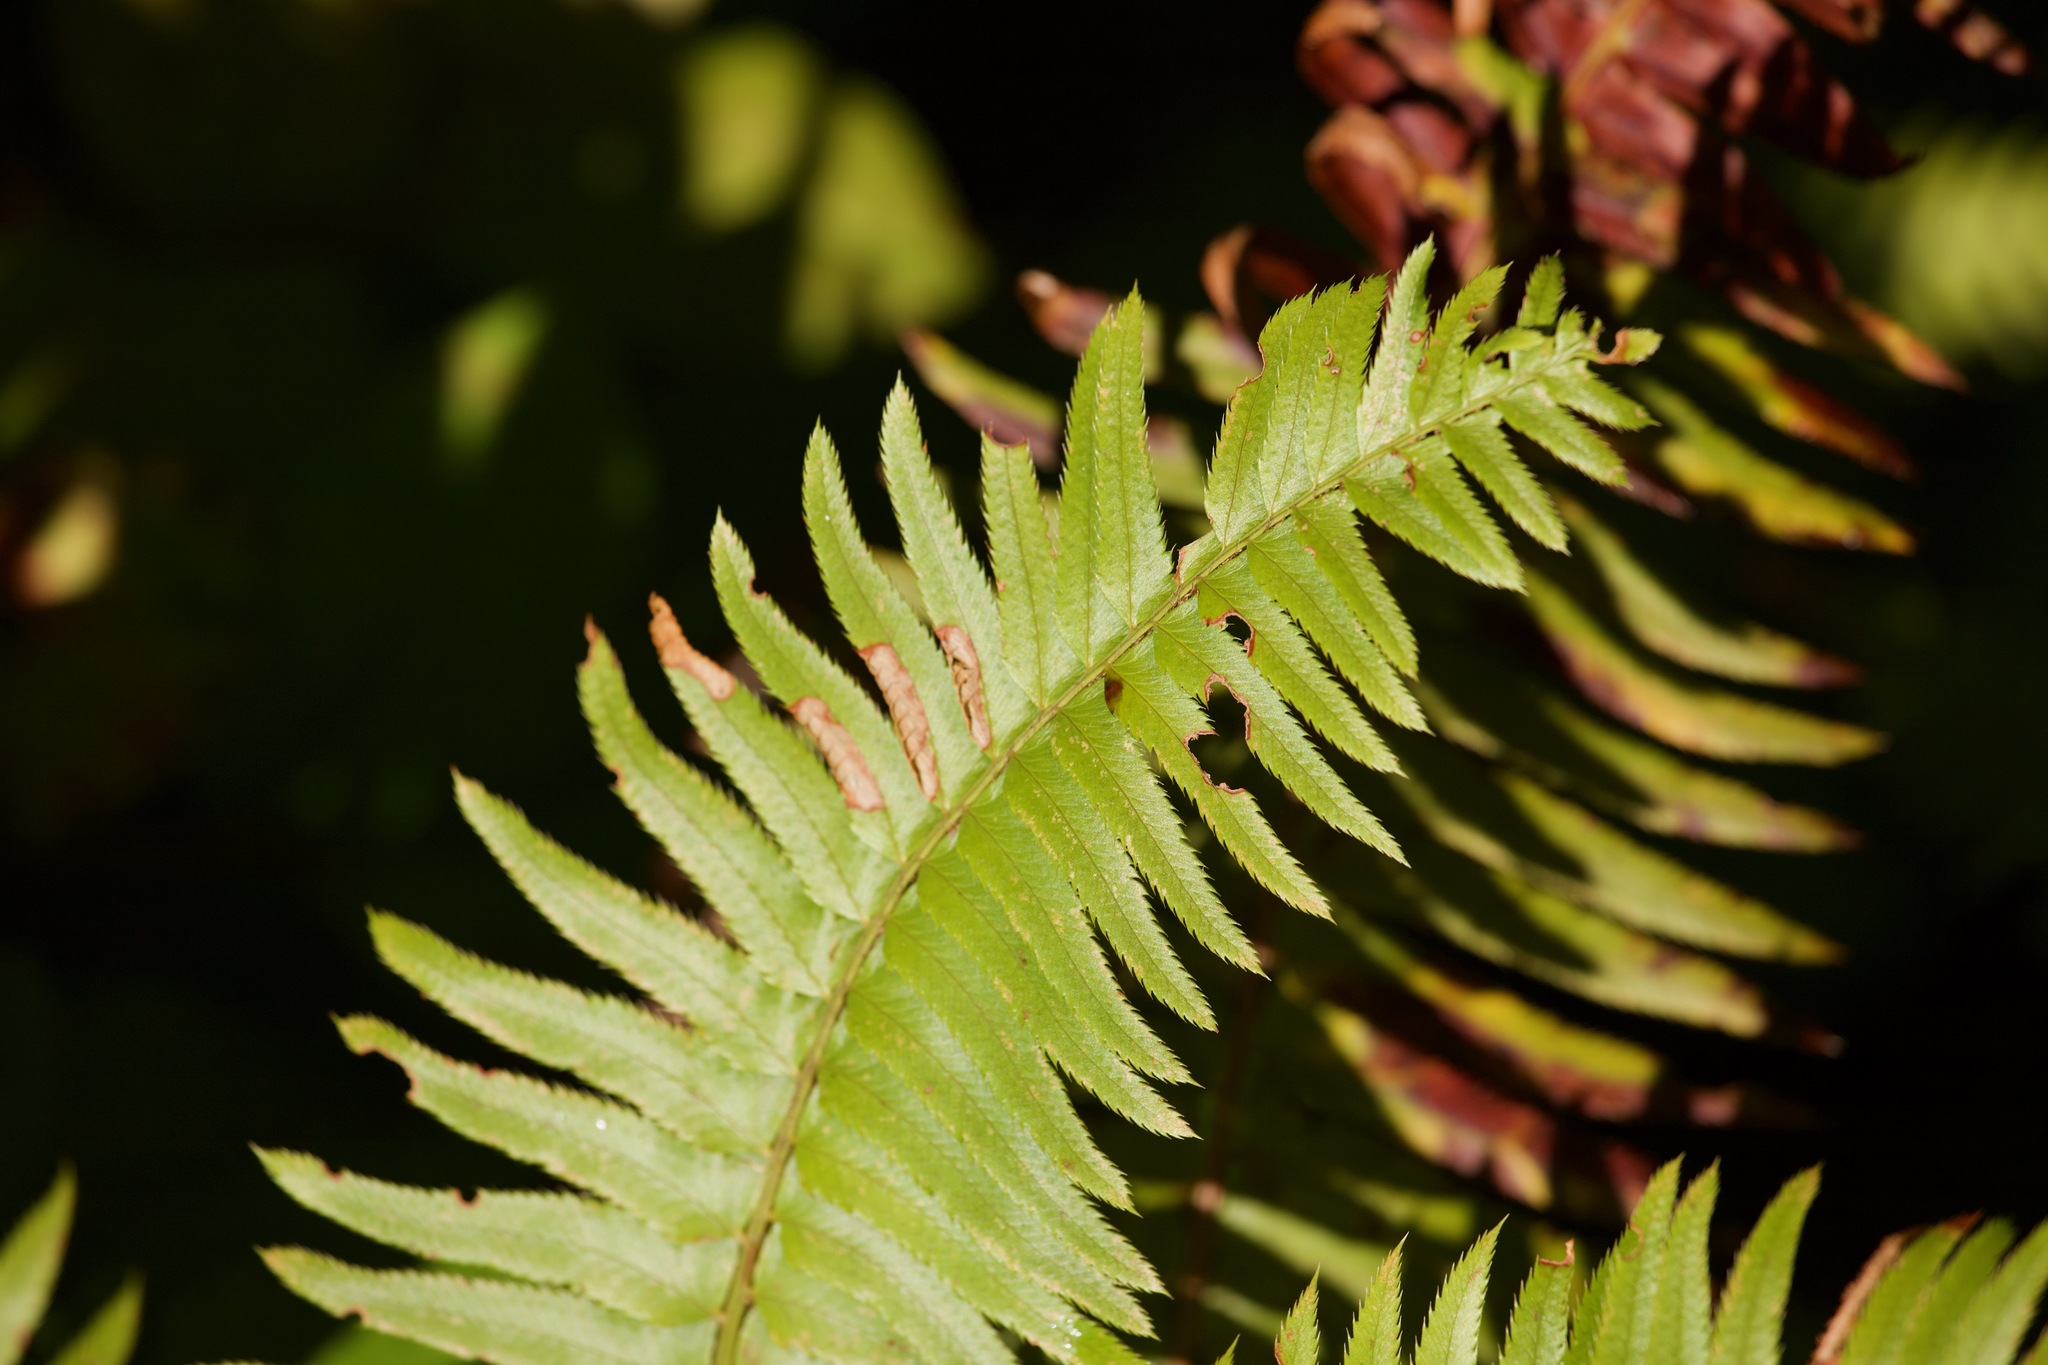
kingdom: Plantae
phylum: Tracheophyta
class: Polypodiopsida
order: Polypodiales
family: Dryopteridaceae
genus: Polystichum
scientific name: Polystichum munitum
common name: Western sword-fern
